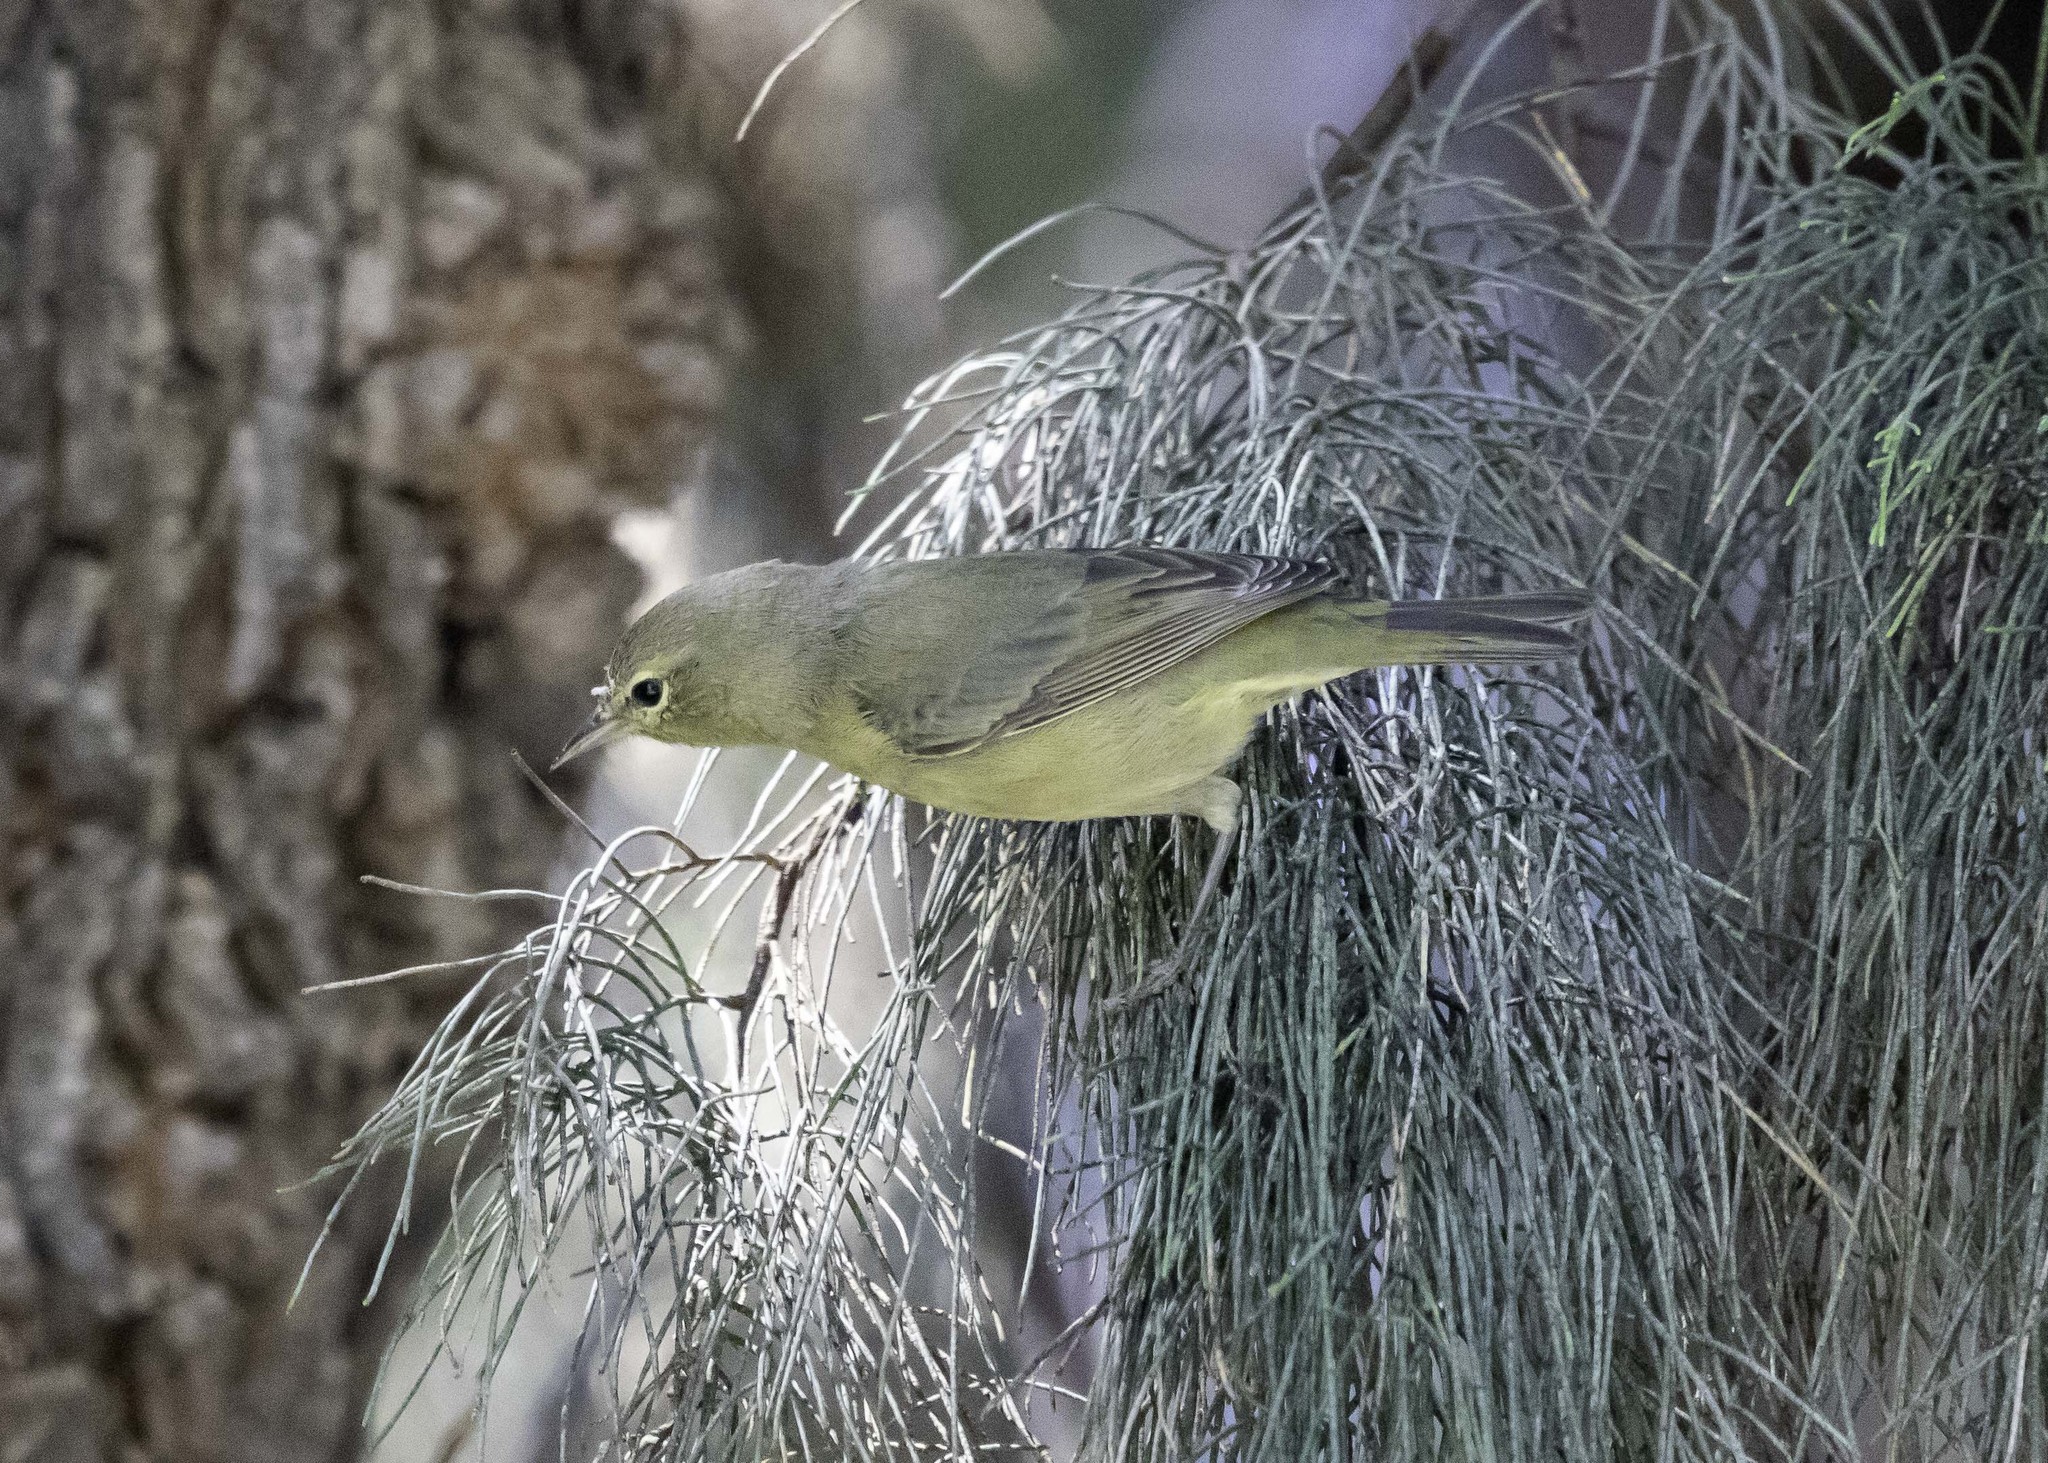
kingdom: Animalia
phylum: Chordata
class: Aves
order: Passeriformes
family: Parulidae
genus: Leiothlypis
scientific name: Leiothlypis celata
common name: Orange-crowned warbler
